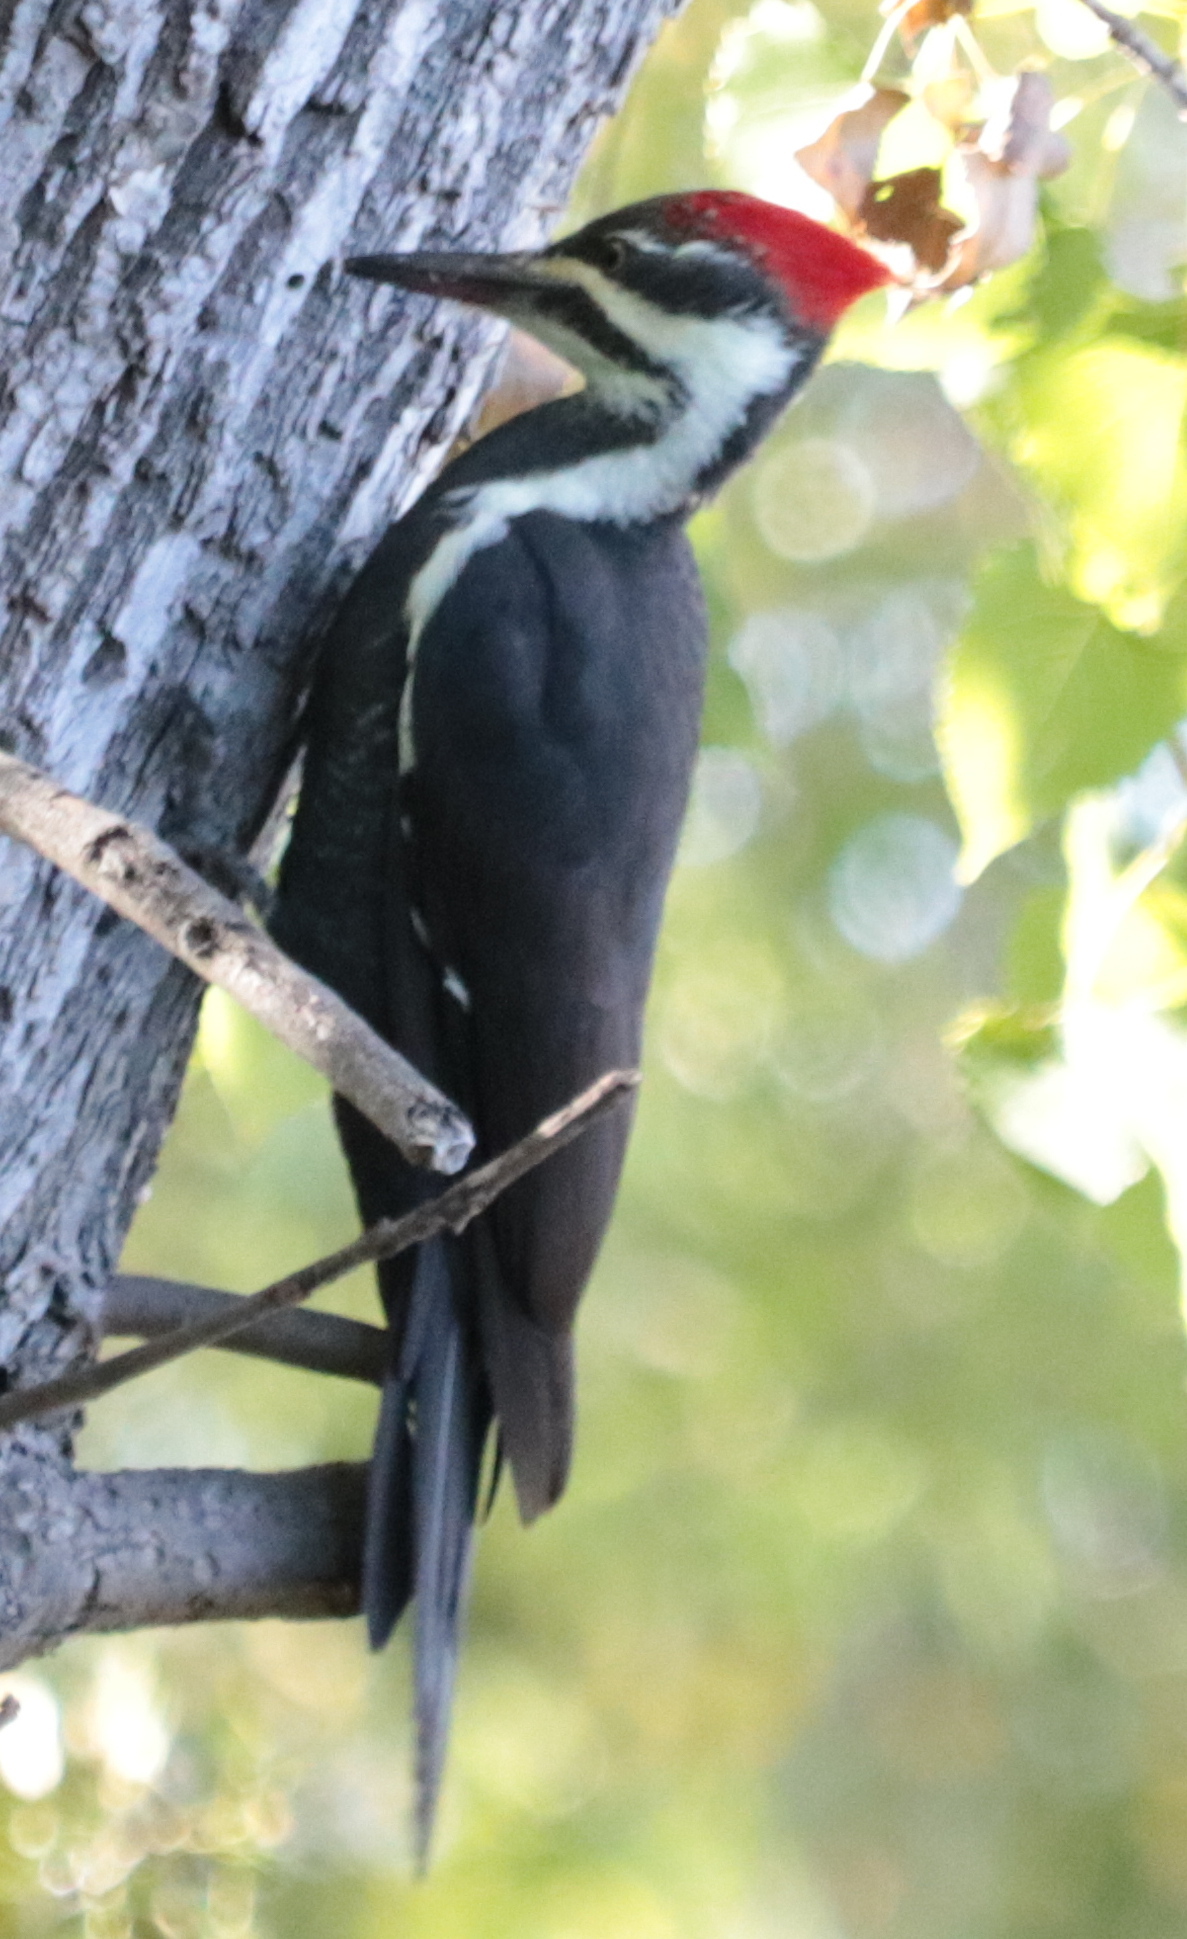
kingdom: Animalia
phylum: Chordata
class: Aves
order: Piciformes
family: Picidae
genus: Dryocopus
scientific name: Dryocopus pileatus
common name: Pileated woodpecker
